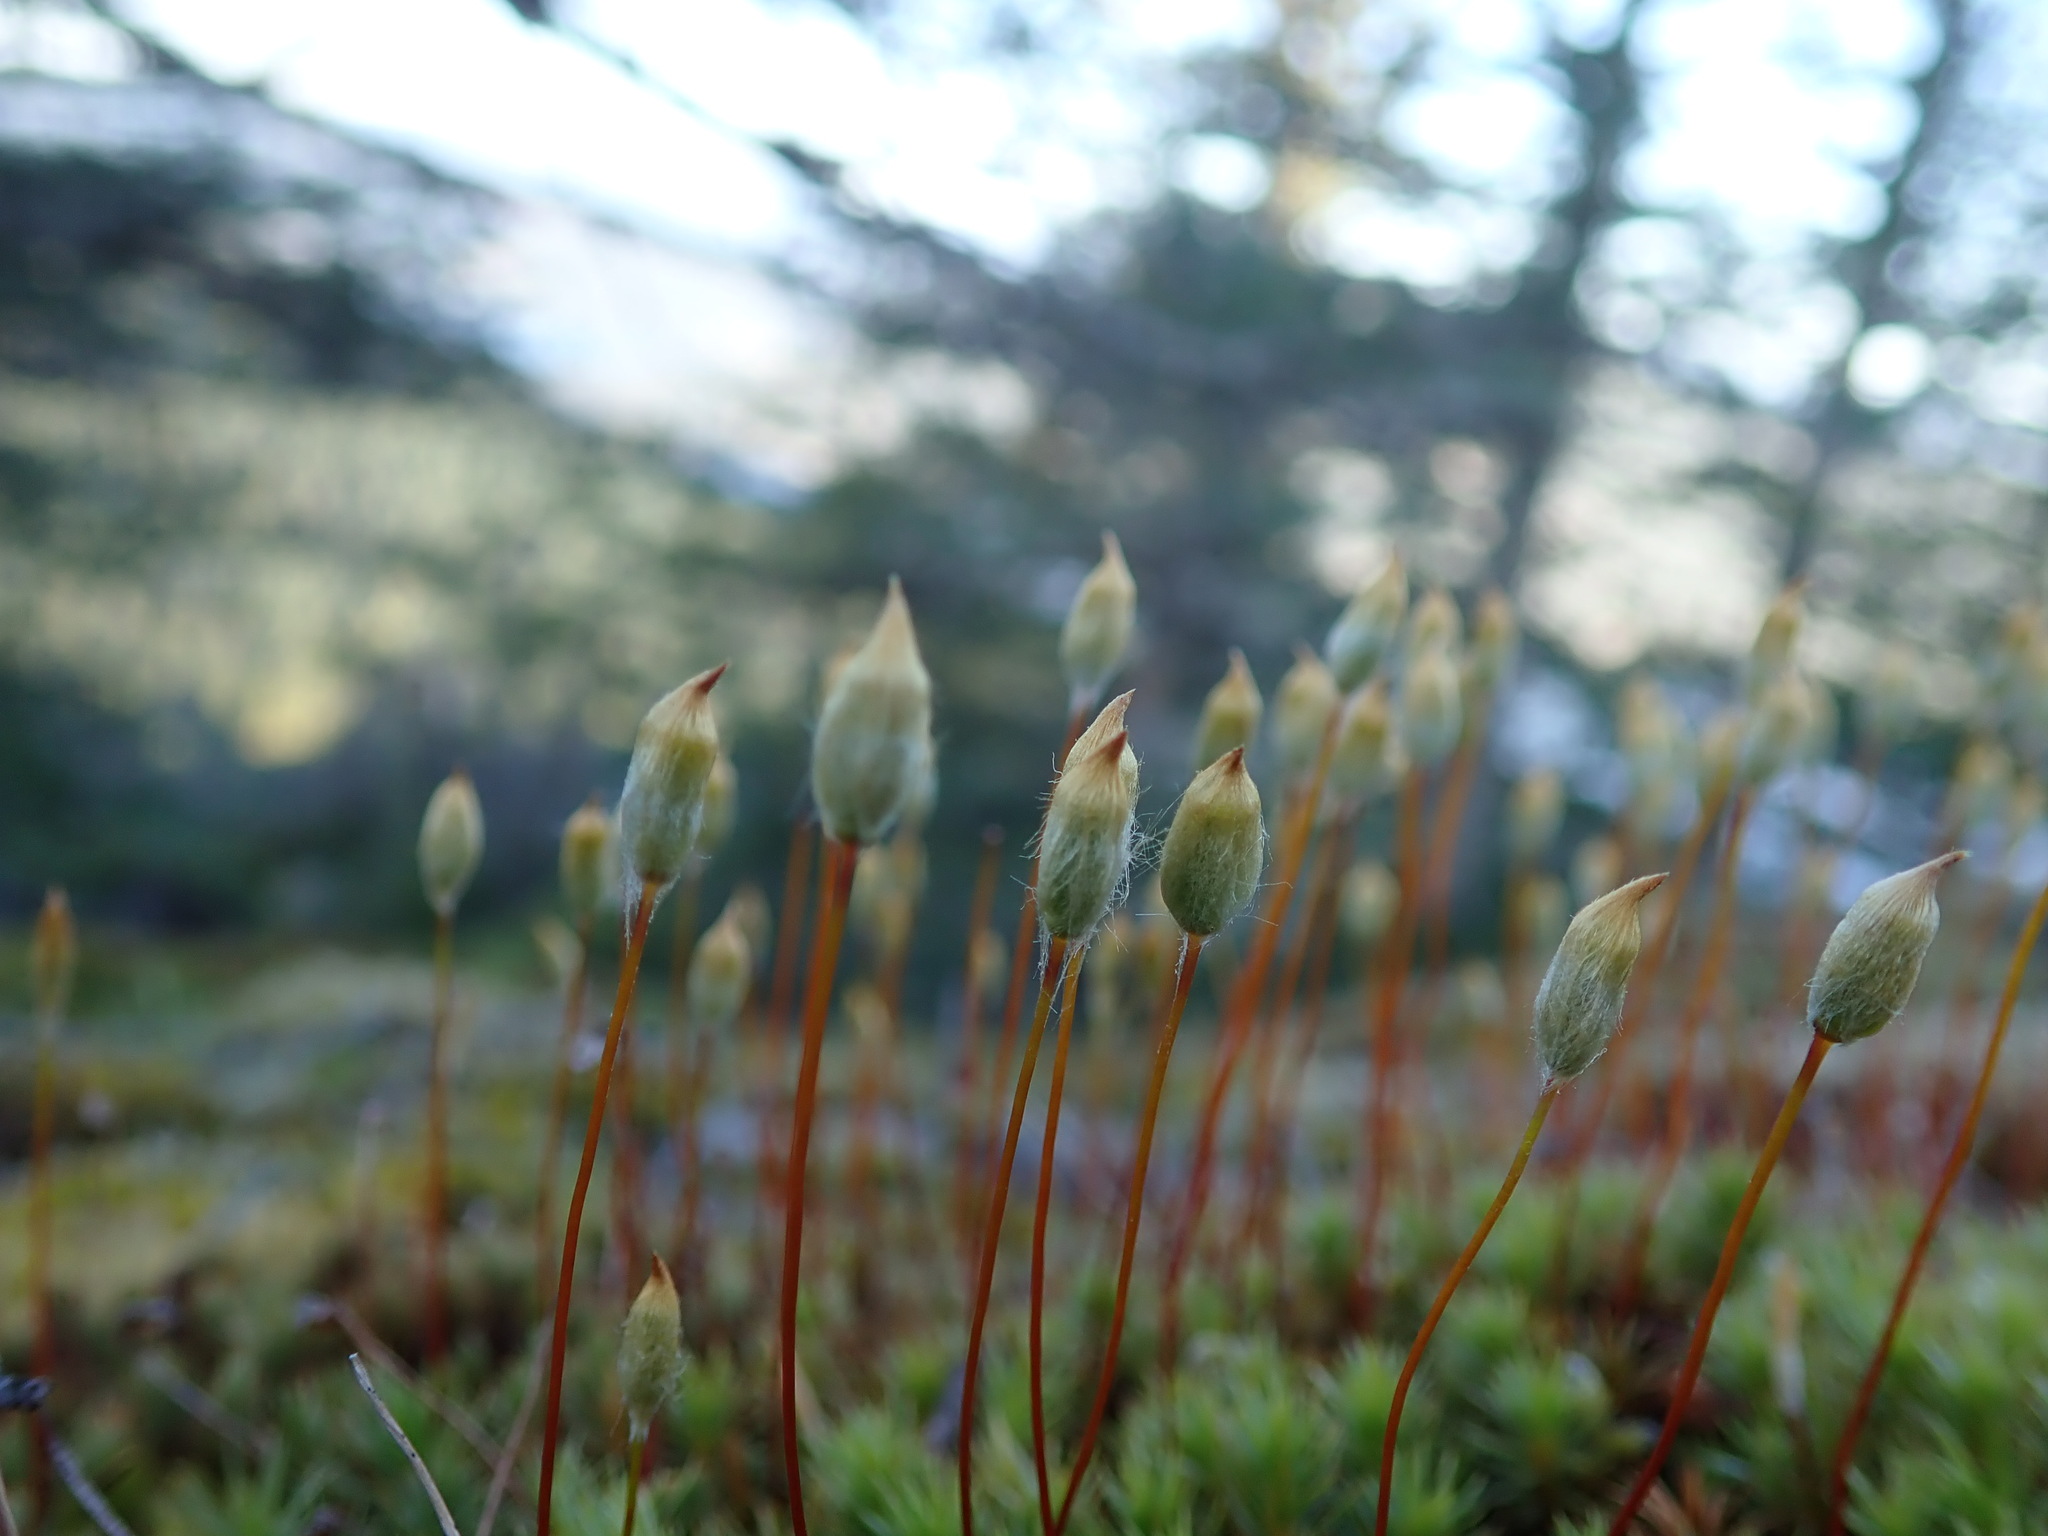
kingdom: Plantae
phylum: Bryophyta
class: Polytrichopsida
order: Polytrichales
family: Polytrichaceae
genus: Polytrichum
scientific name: Polytrichum juniperinum
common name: Juniper haircap moss
